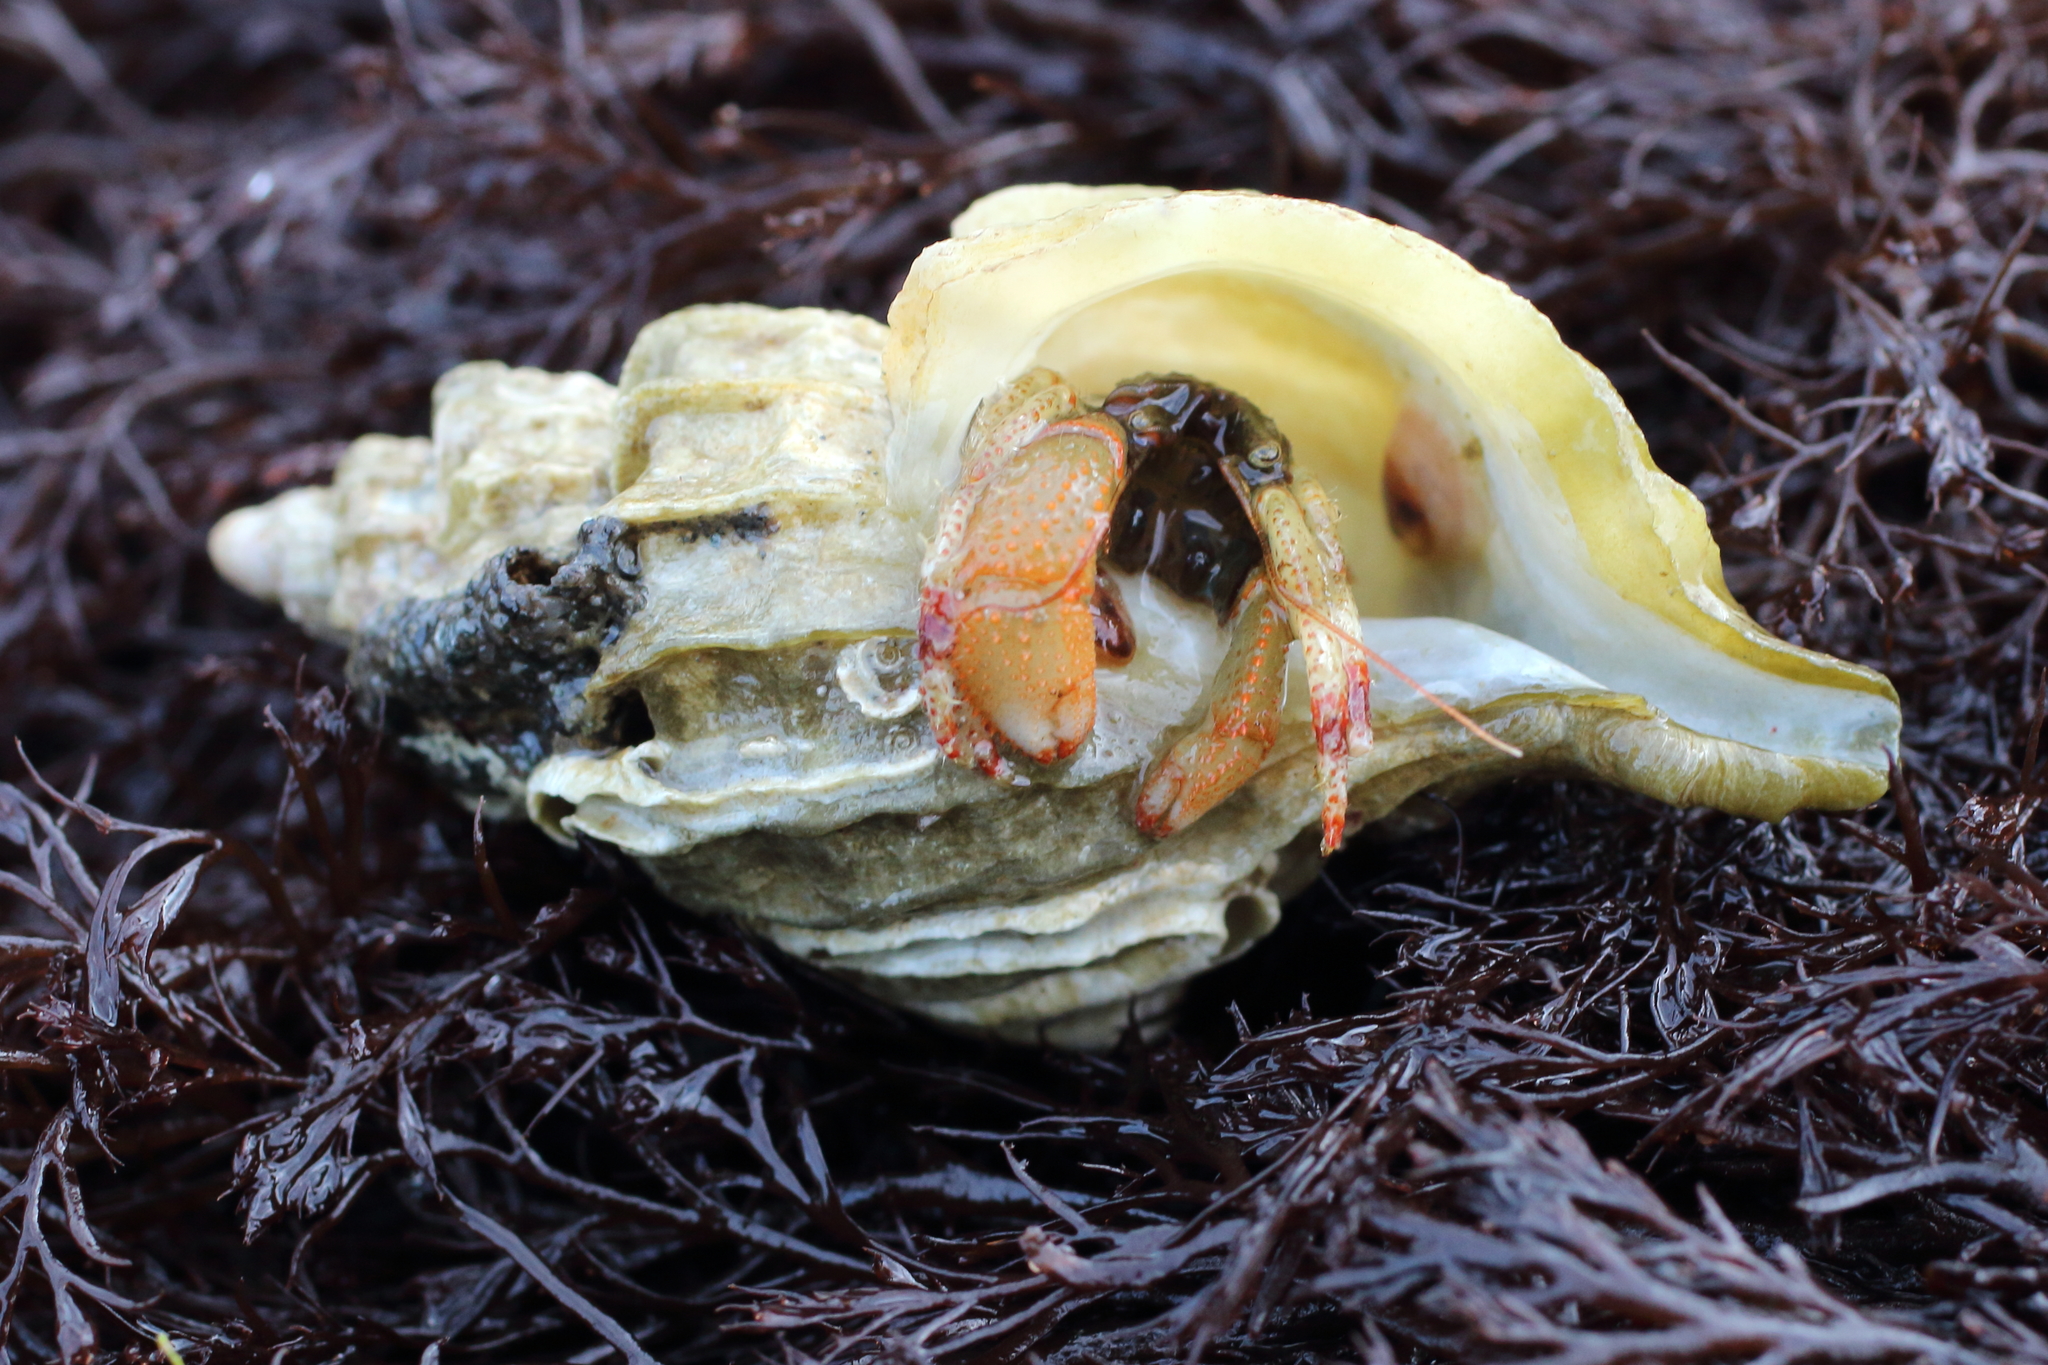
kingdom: Animalia
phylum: Arthropoda
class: Malacostraca
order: Decapoda
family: Paguridae
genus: Pagurus
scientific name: Pagurus beringanus
